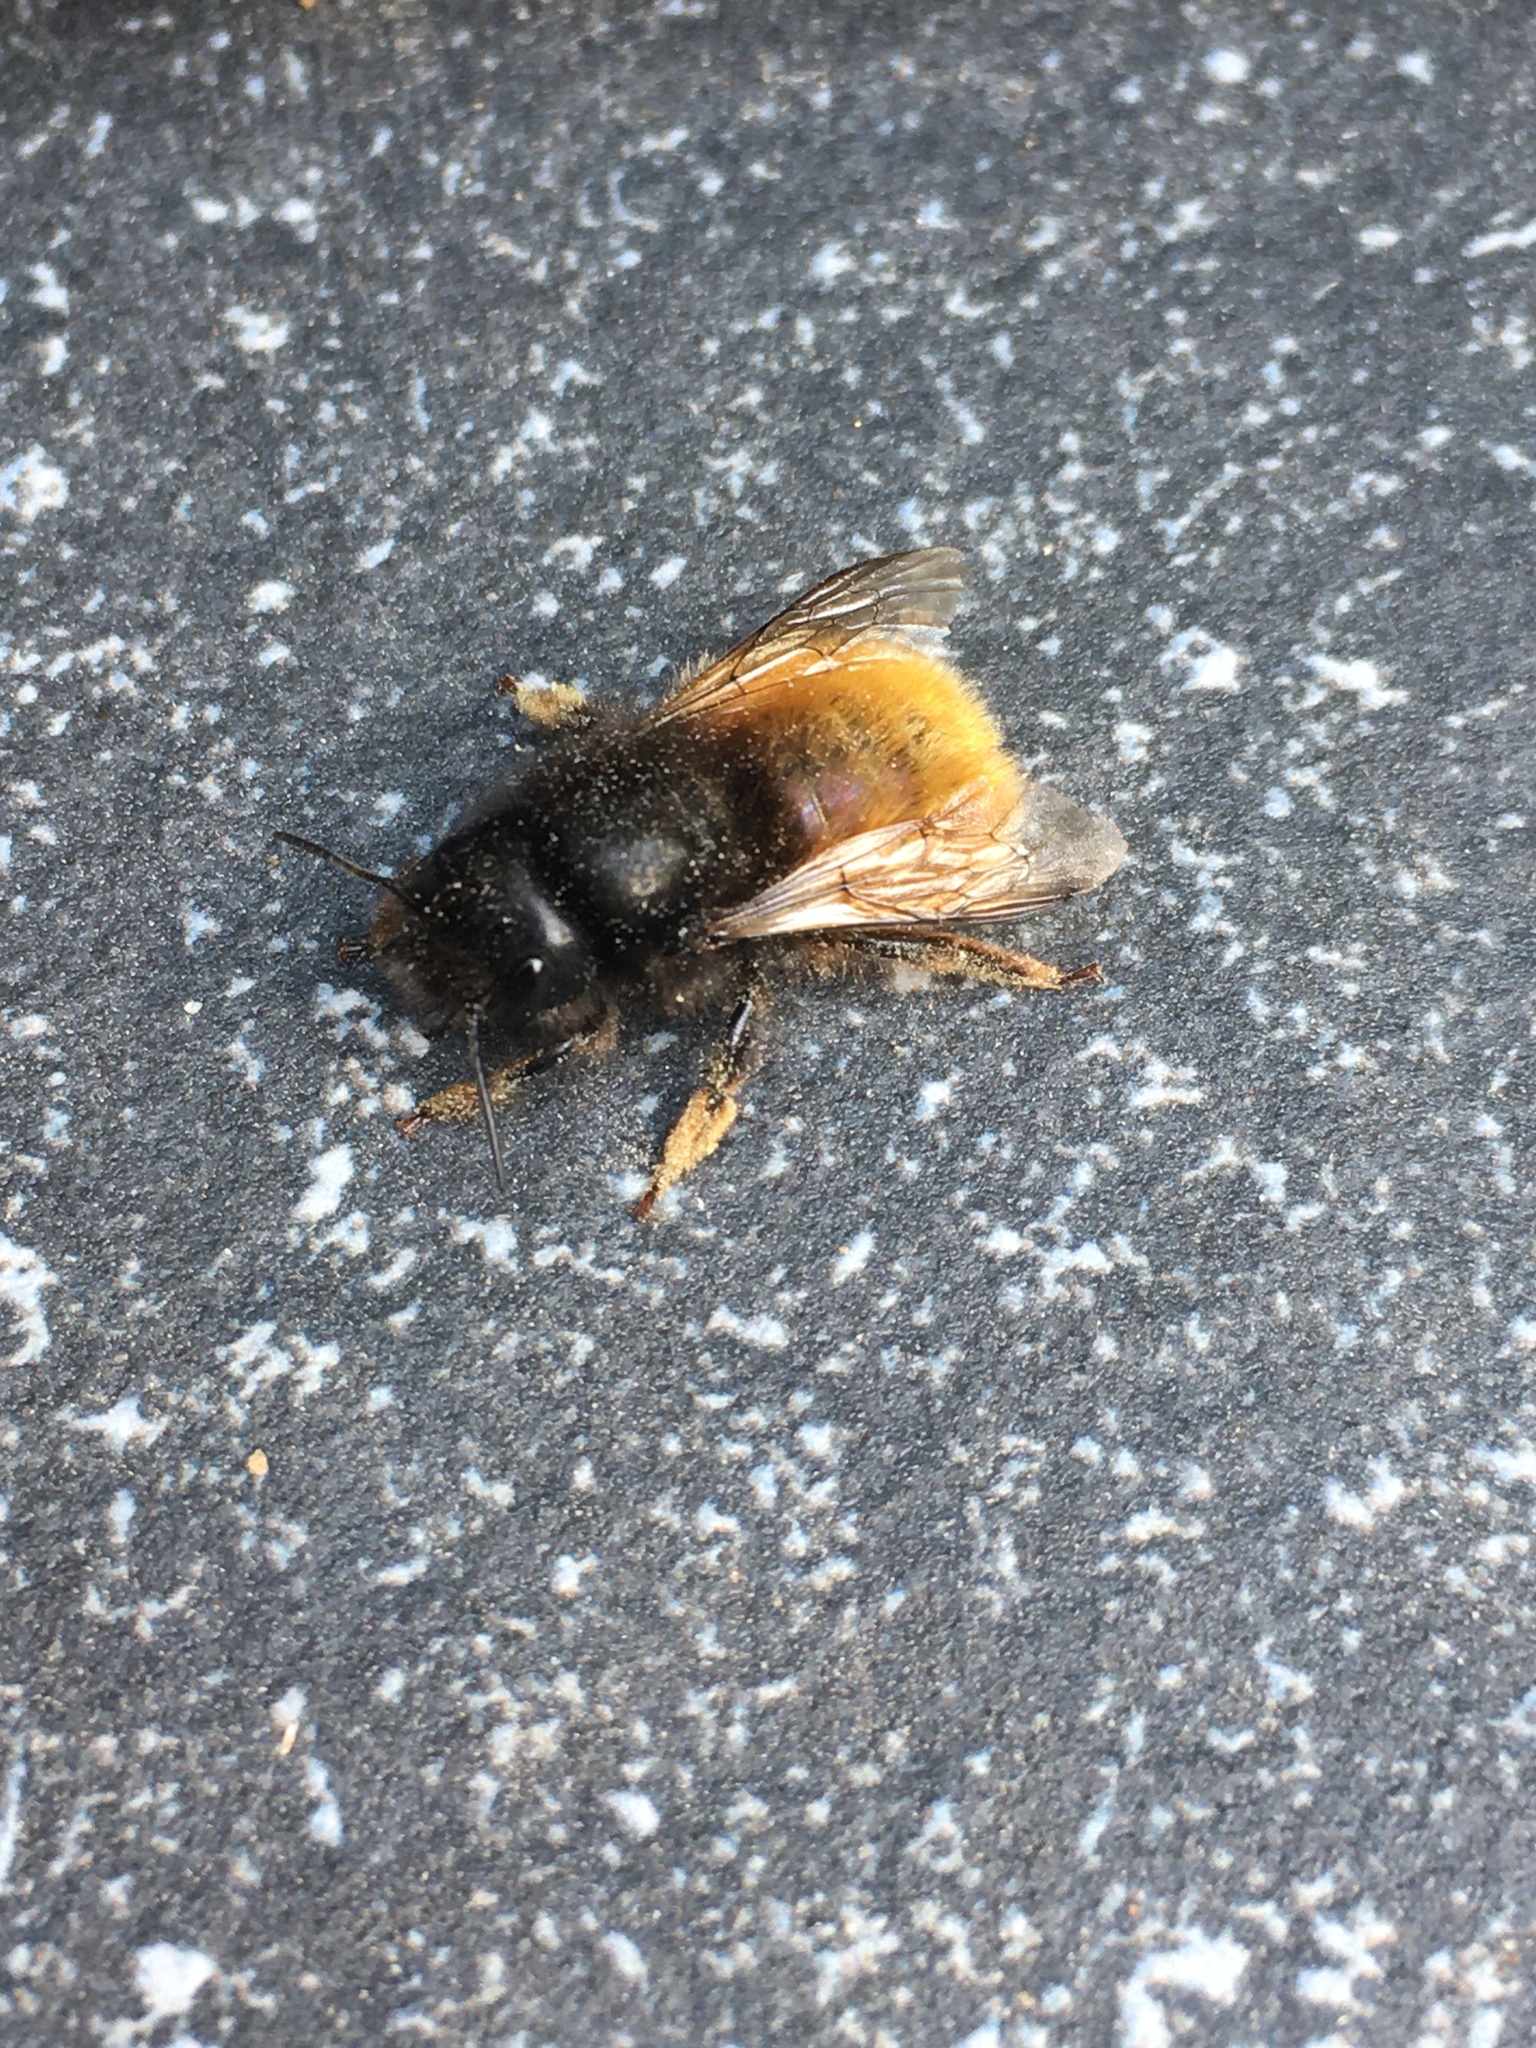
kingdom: Animalia
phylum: Arthropoda
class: Insecta
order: Hymenoptera
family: Megachilidae
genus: Osmia
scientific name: Osmia cornuta
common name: Mason bee
